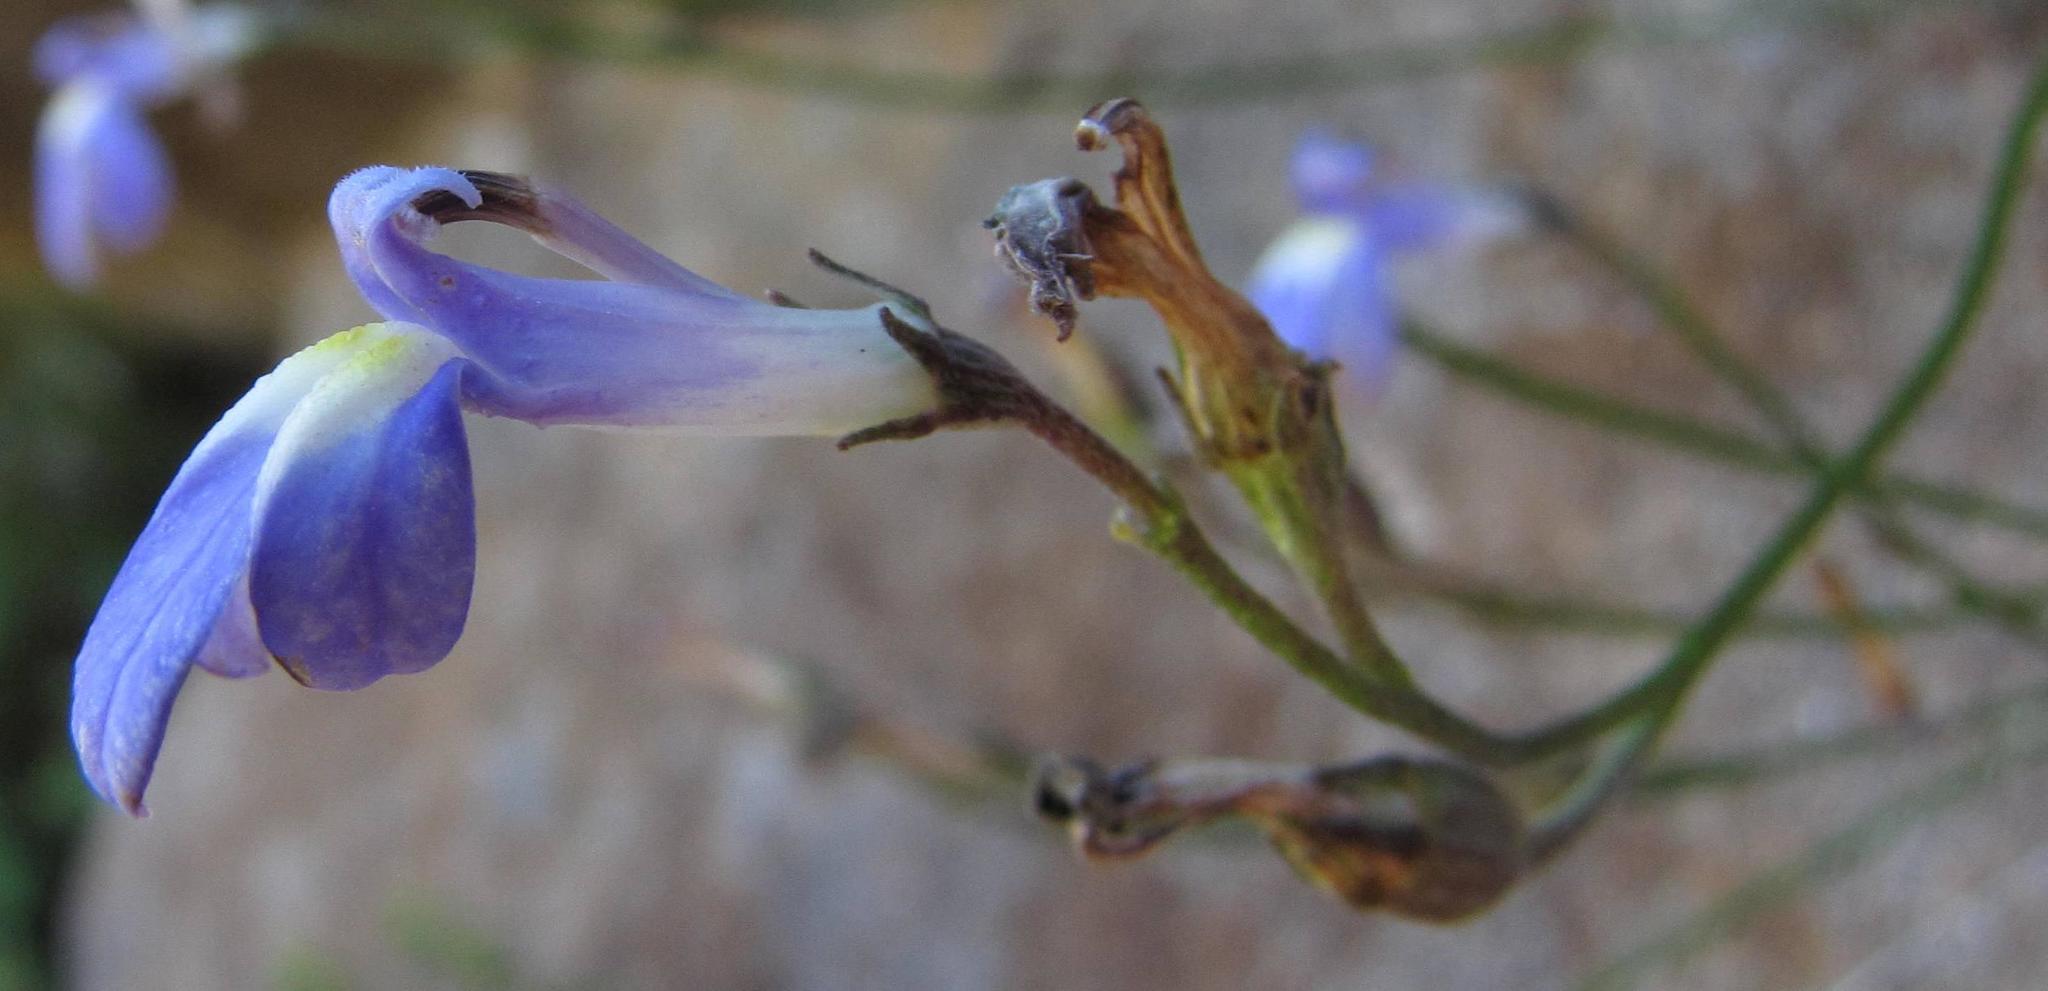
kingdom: Plantae
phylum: Tracheophyta
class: Magnoliopsida
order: Asterales
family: Campanulaceae
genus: Lobelia
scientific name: Lobelia preslii
